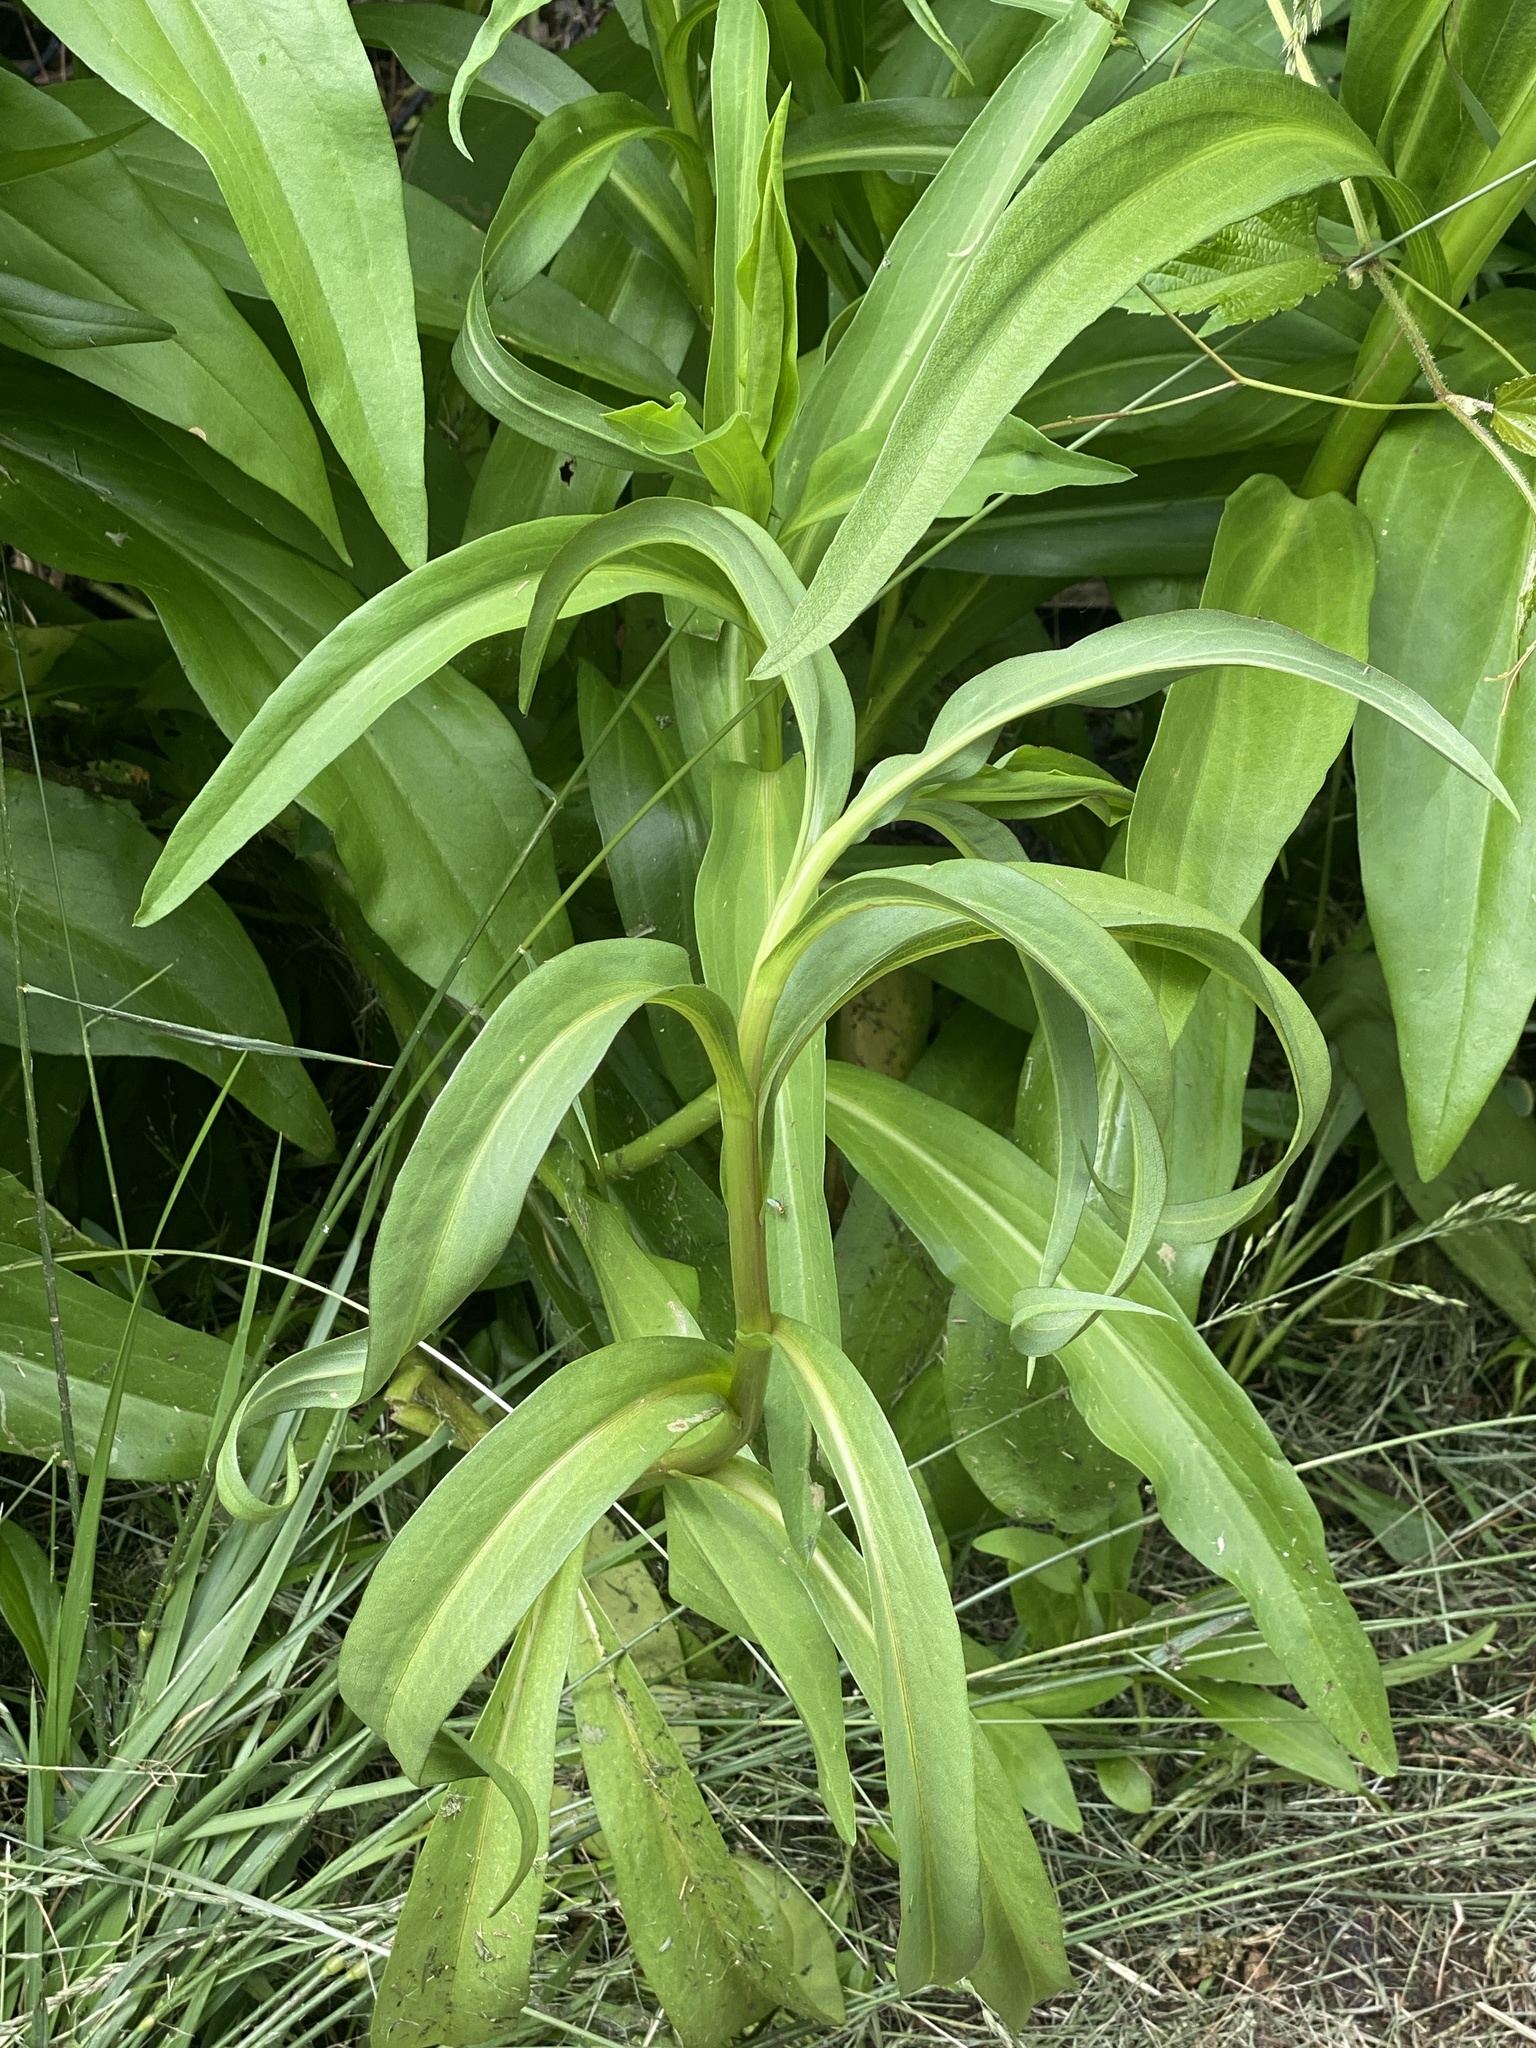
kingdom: Plantae
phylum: Tracheophyta
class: Magnoliopsida
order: Asterales
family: Asteraceae
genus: Solidago
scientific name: Solidago sempervirens
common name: Salt-marsh goldenrod
